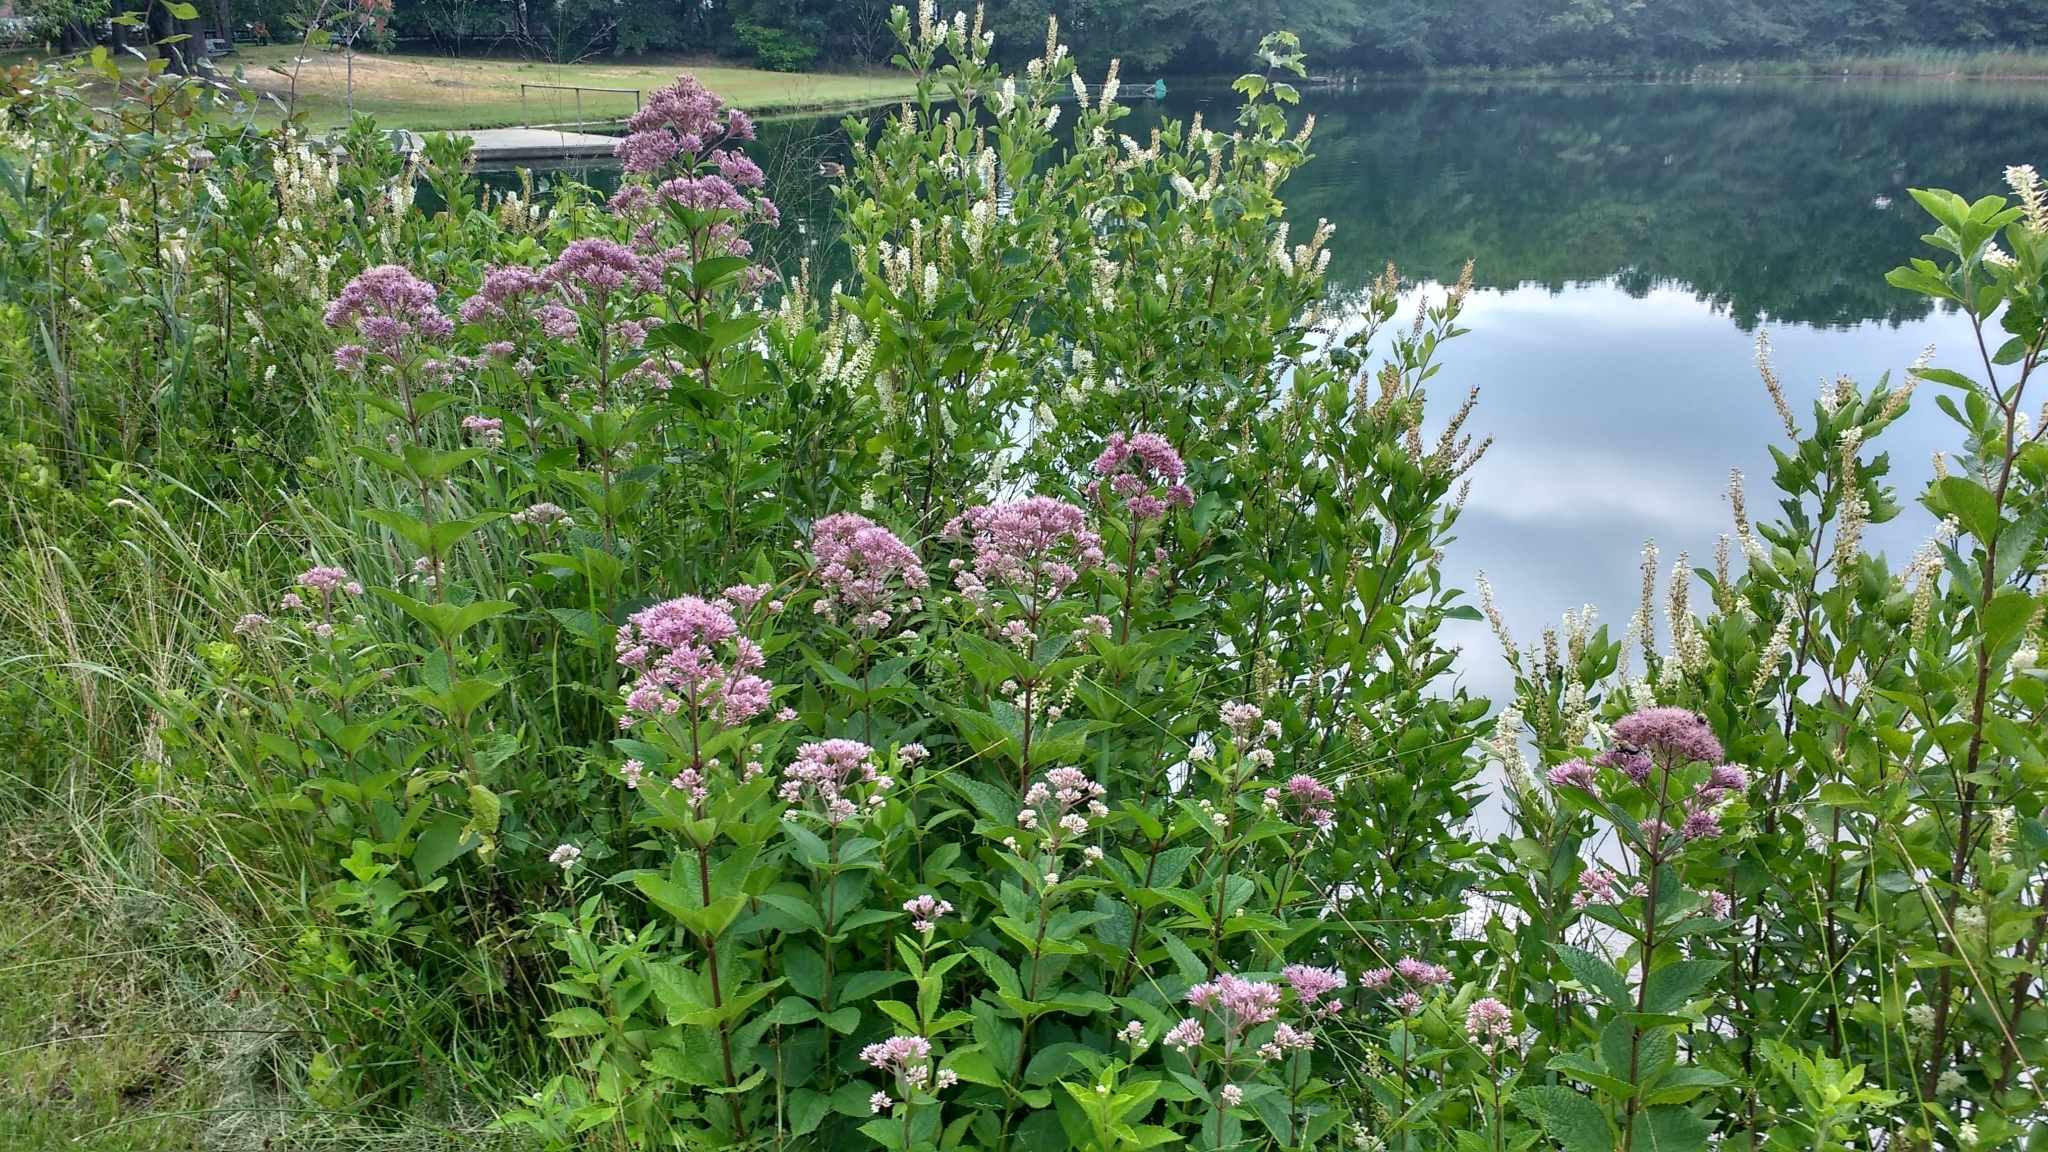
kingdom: Plantae
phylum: Tracheophyta
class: Magnoliopsida
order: Asterales
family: Asteraceae
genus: Eutrochium
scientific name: Eutrochium dubium
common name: Coastal plain joe pye weed
